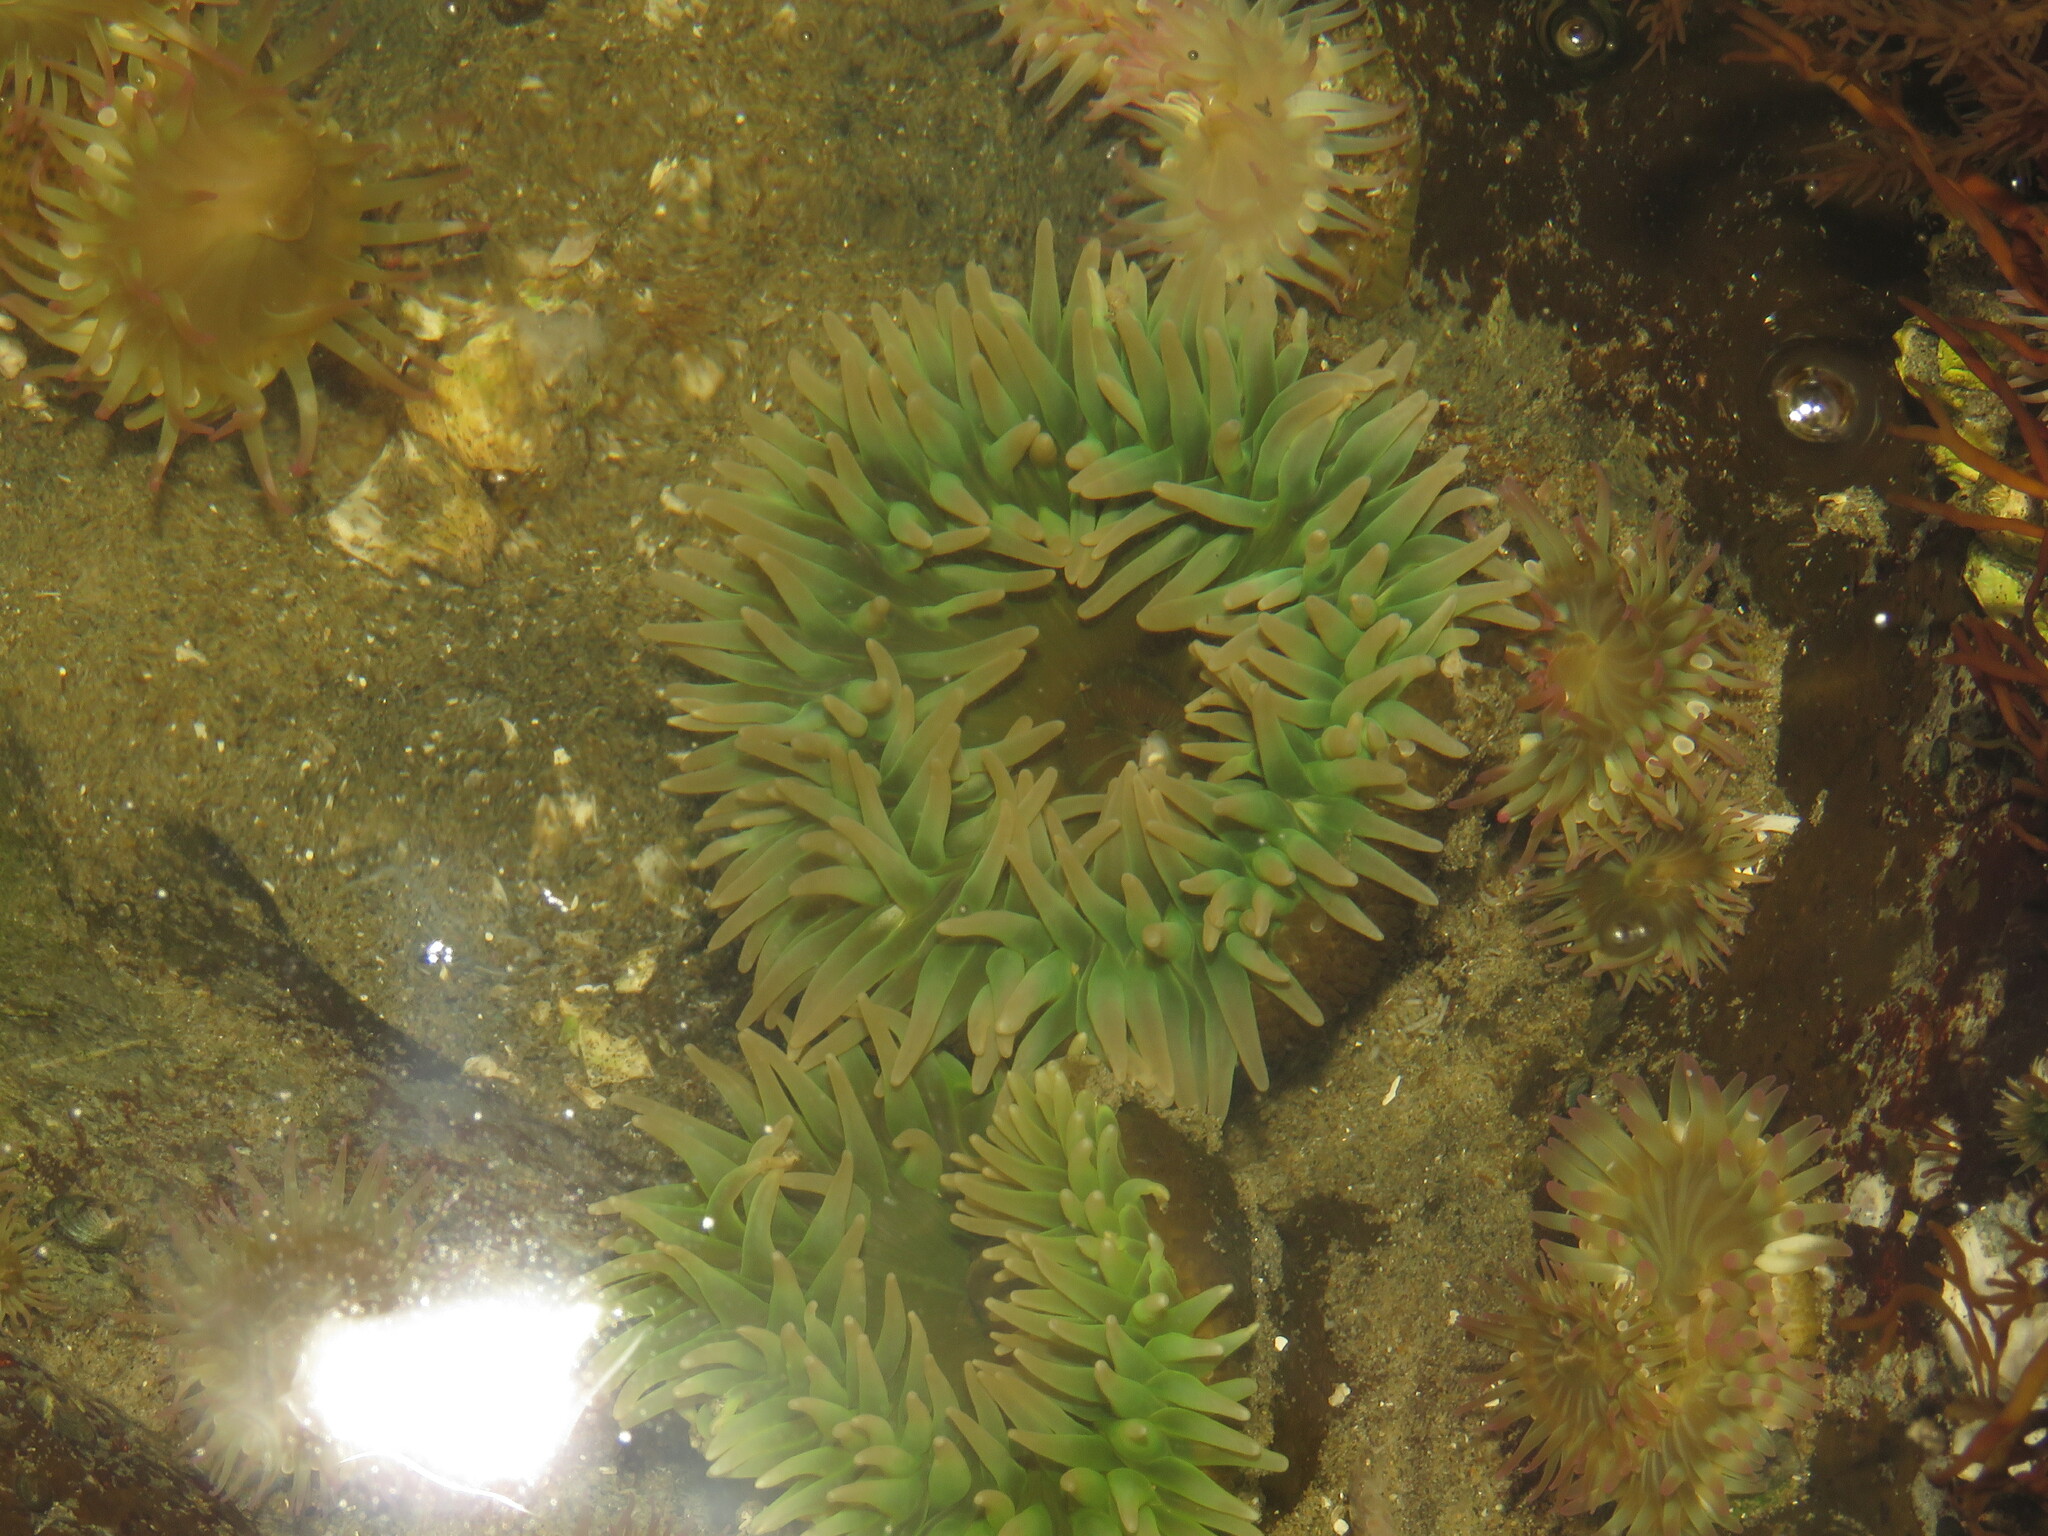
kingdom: Animalia
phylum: Cnidaria
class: Anthozoa
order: Actiniaria
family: Actiniidae
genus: Anthopleura
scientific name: Anthopleura xanthogrammica
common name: Giant green anemone
